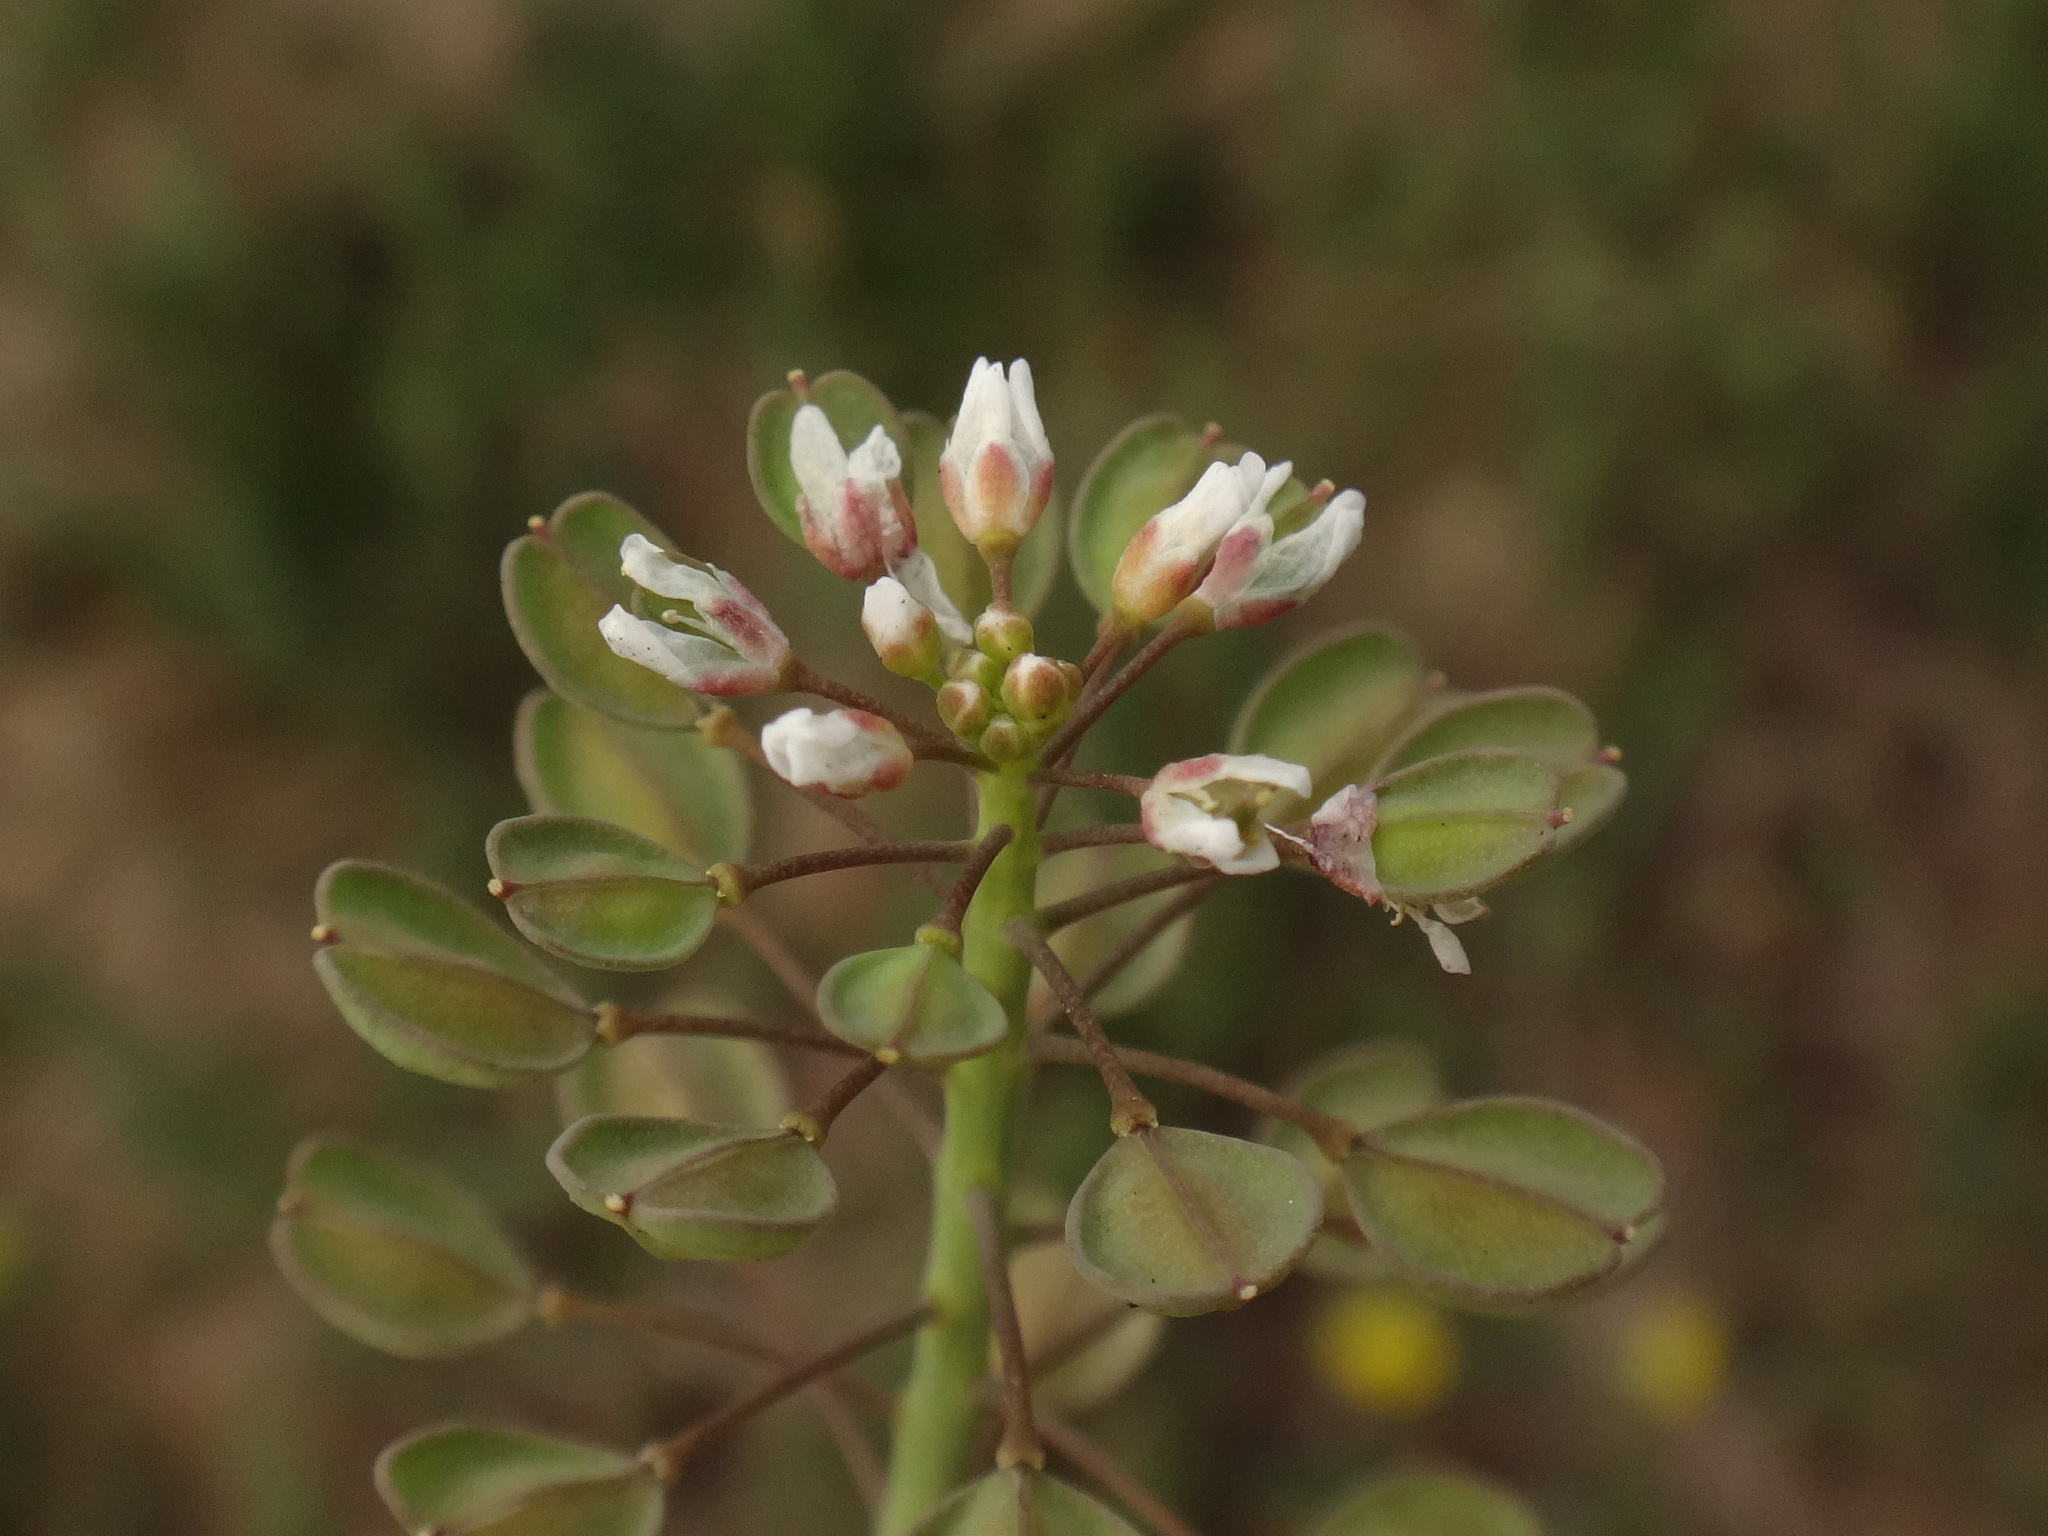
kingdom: Plantae
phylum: Tracheophyta
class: Magnoliopsida
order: Brassicales
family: Brassicaceae
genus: Noccaea
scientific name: Noccaea perfoliata
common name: Perfoliate pennycress
